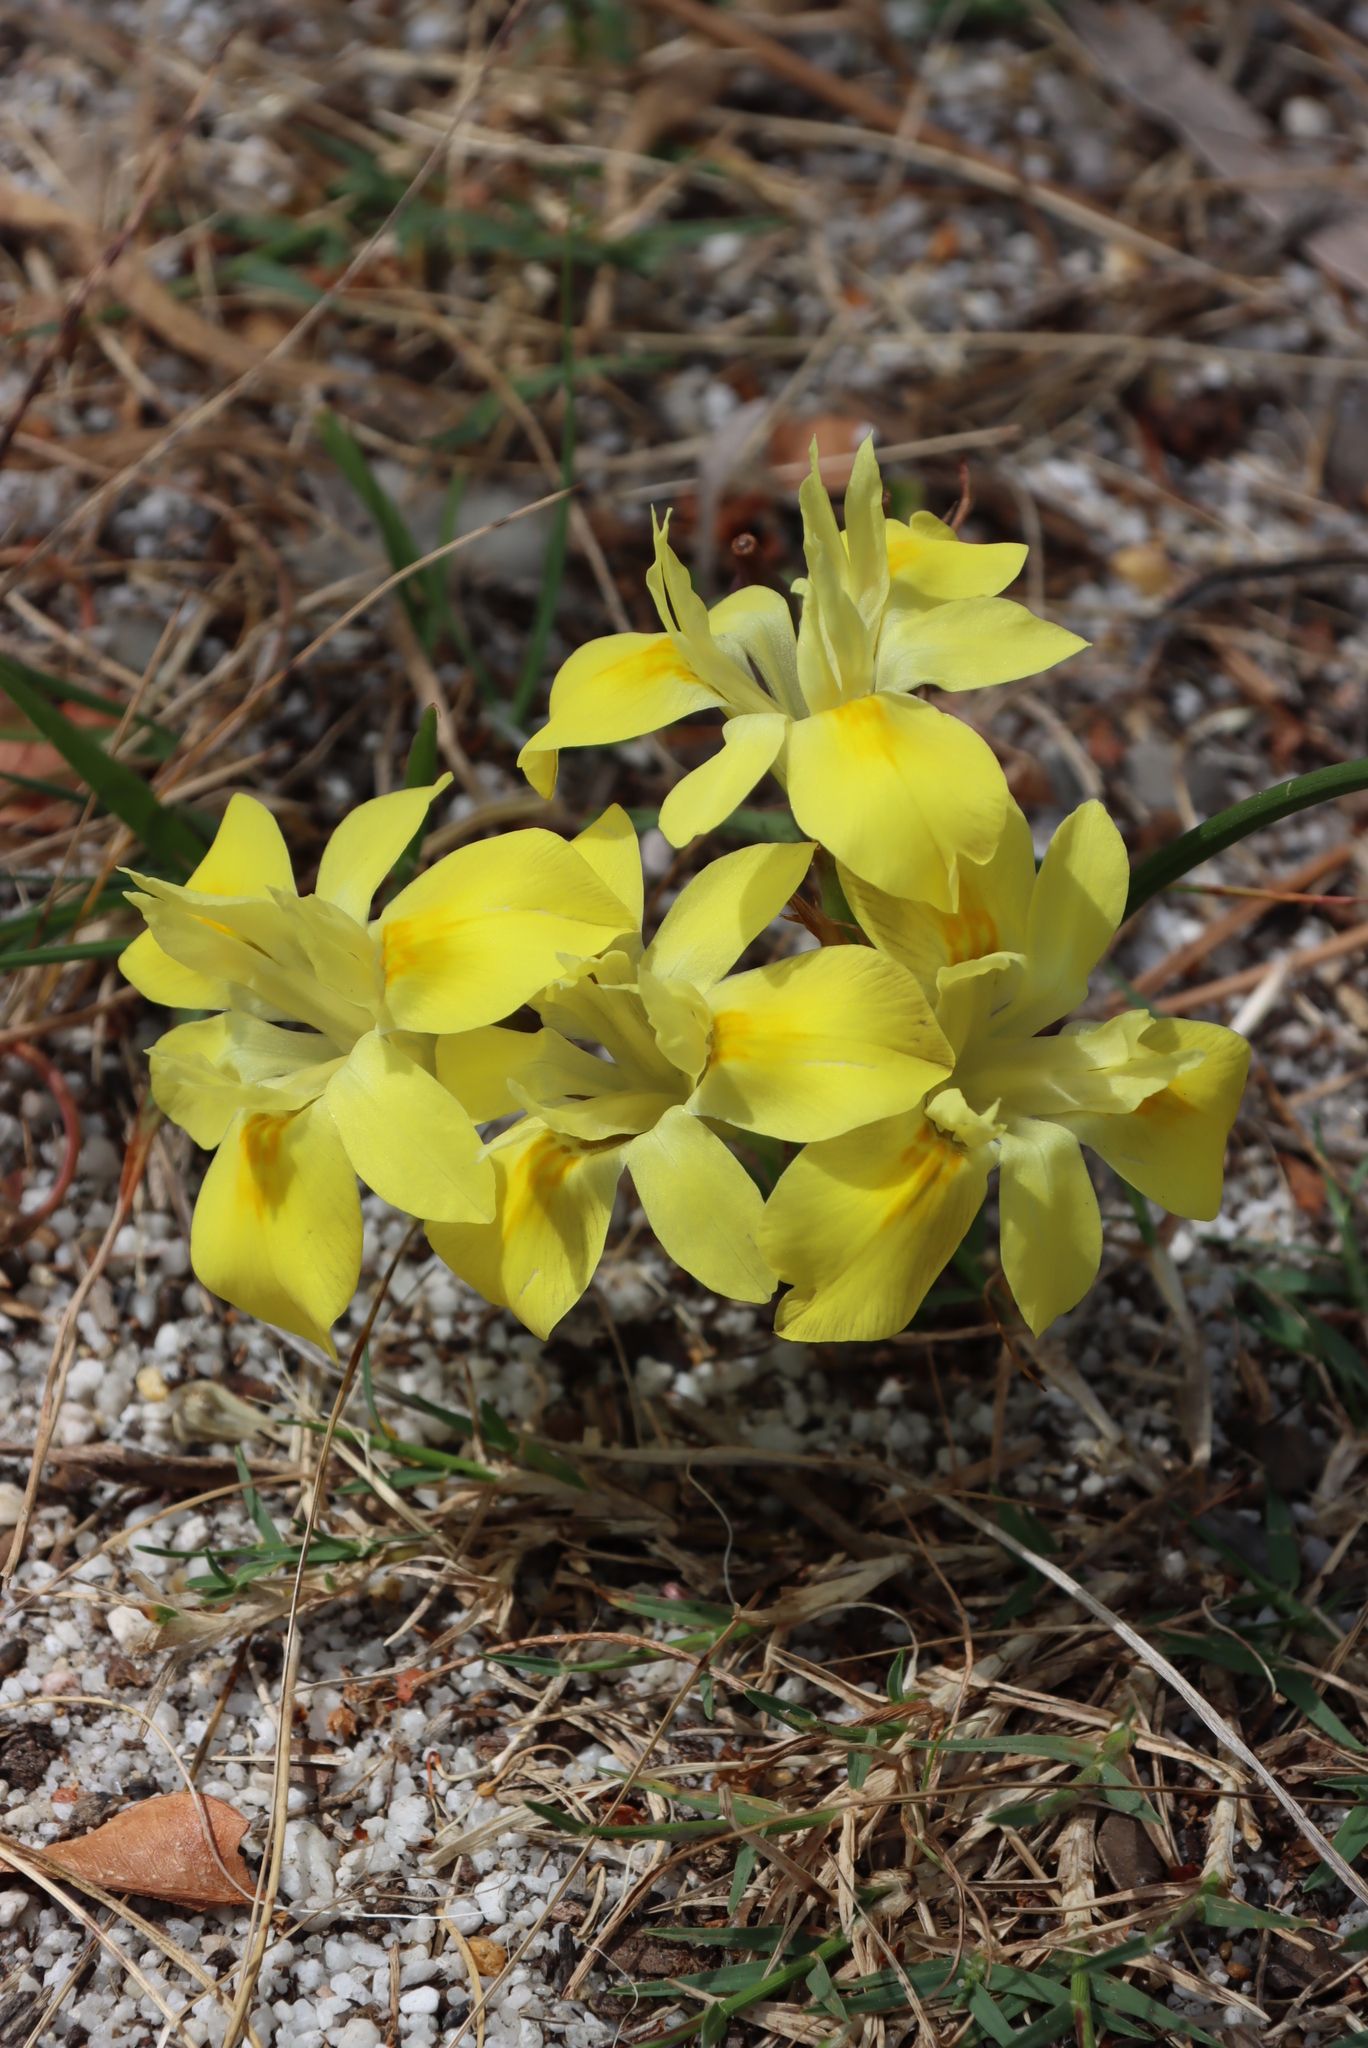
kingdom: Plantae
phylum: Tracheophyta
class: Liliopsida
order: Asparagales
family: Iridaceae
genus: Moraea
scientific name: Moraea fugax
